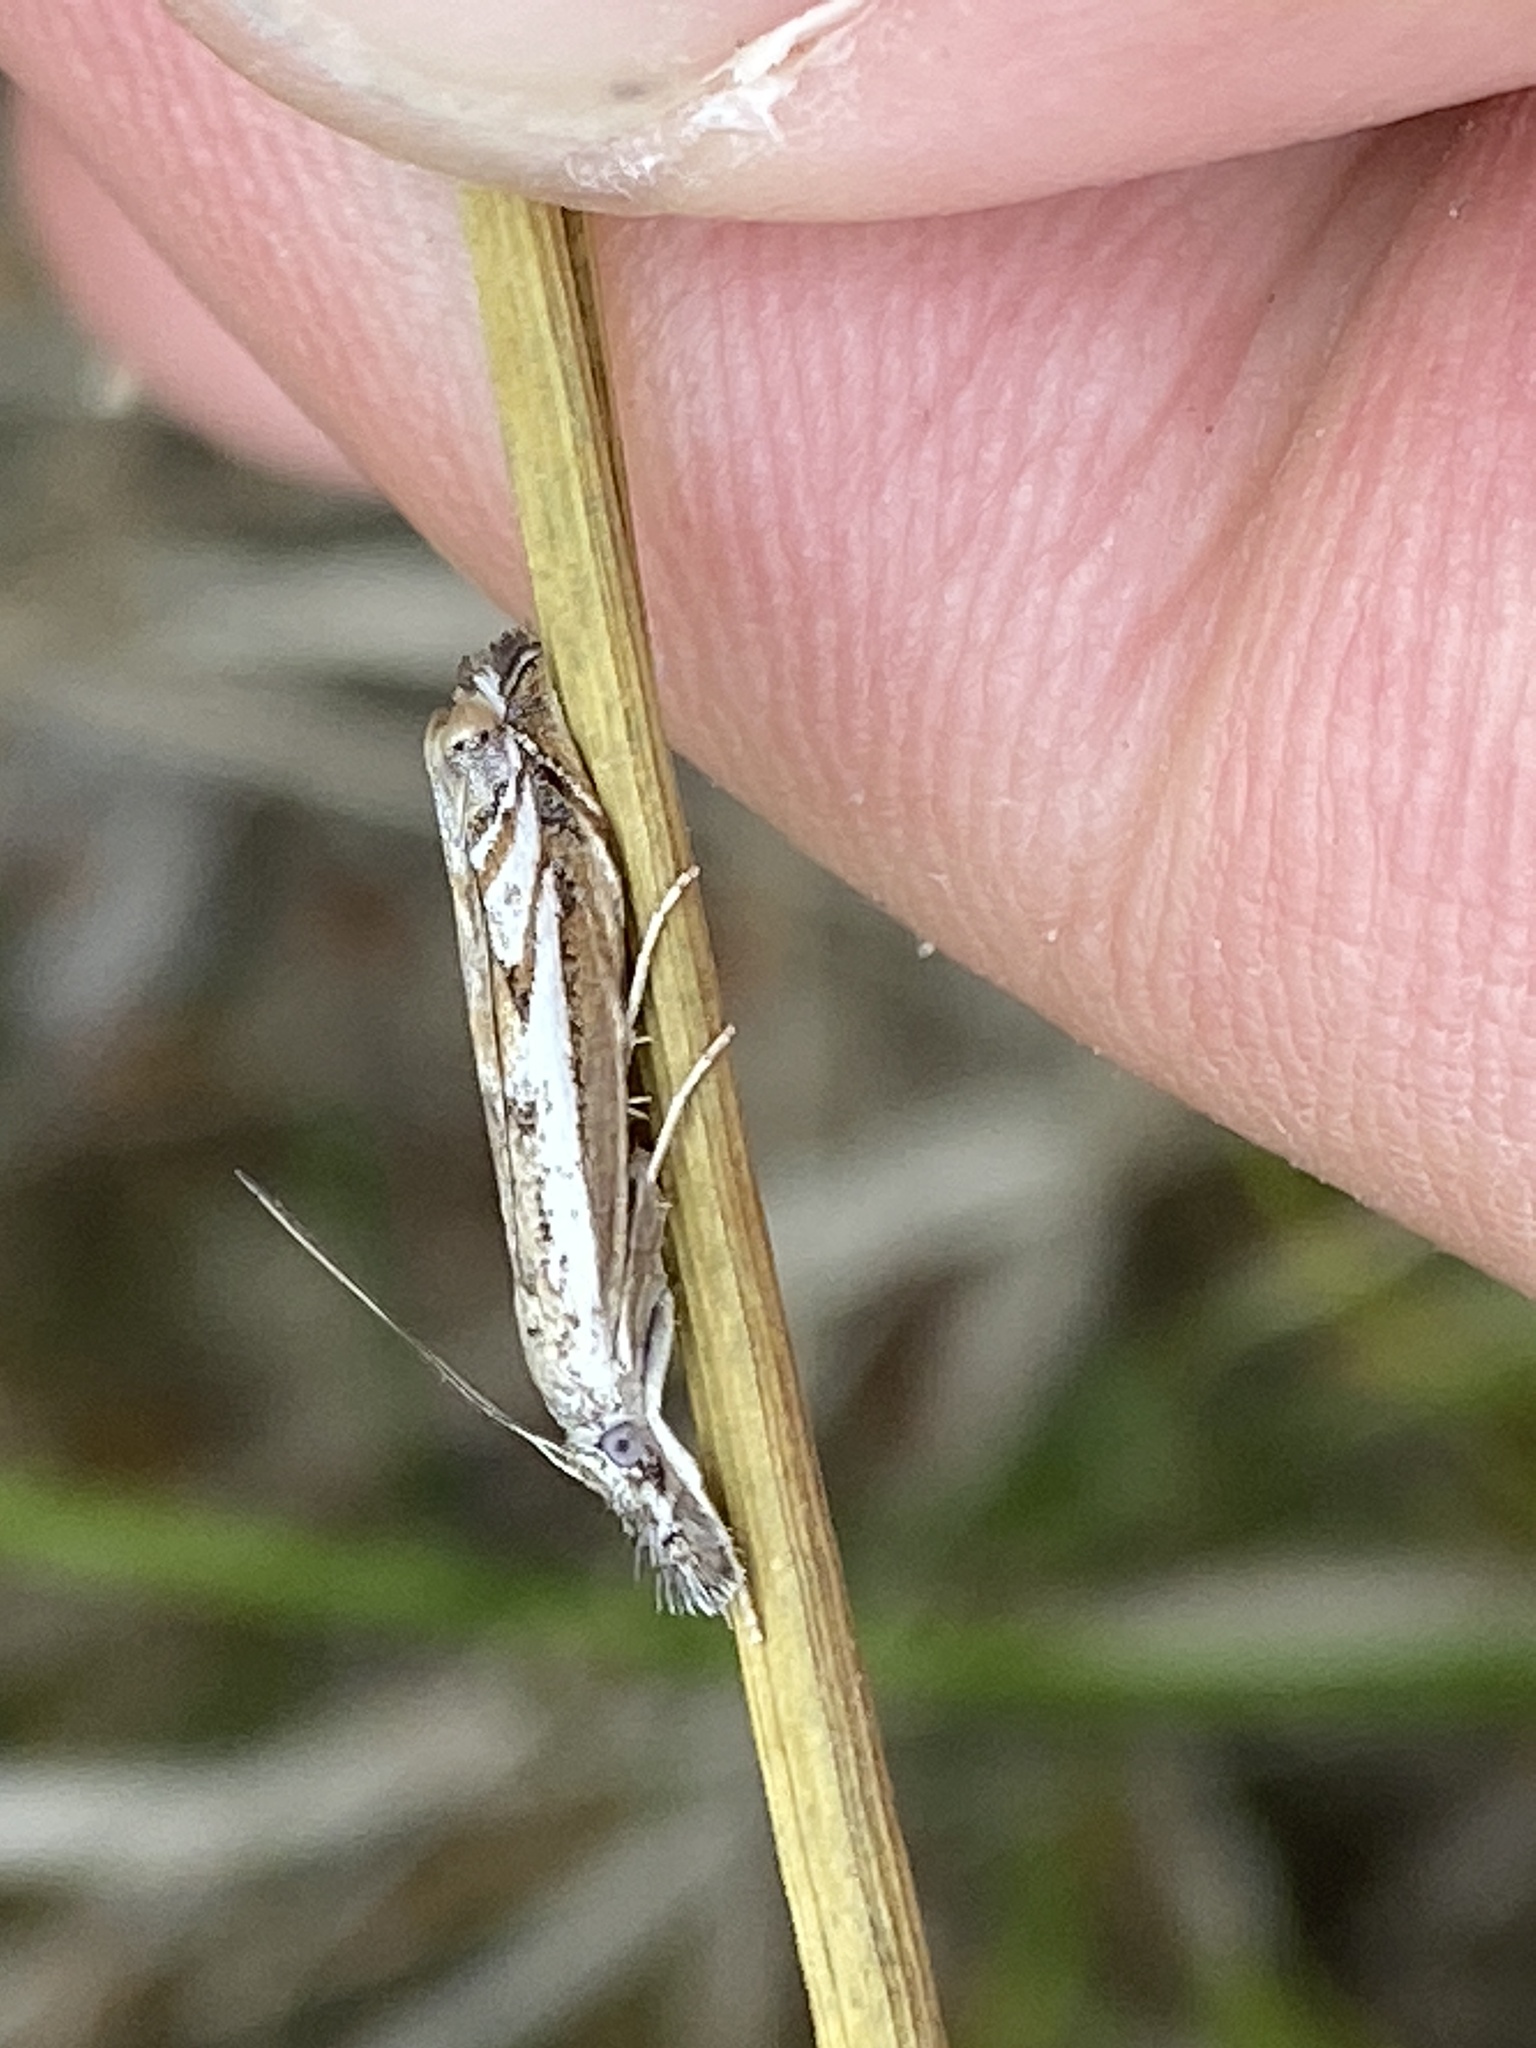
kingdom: Animalia
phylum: Arthropoda
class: Insecta
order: Lepidoptera
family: Crambidae
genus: Platytes
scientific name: Platytes alpinella
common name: Hook-tipped grass-veneer
